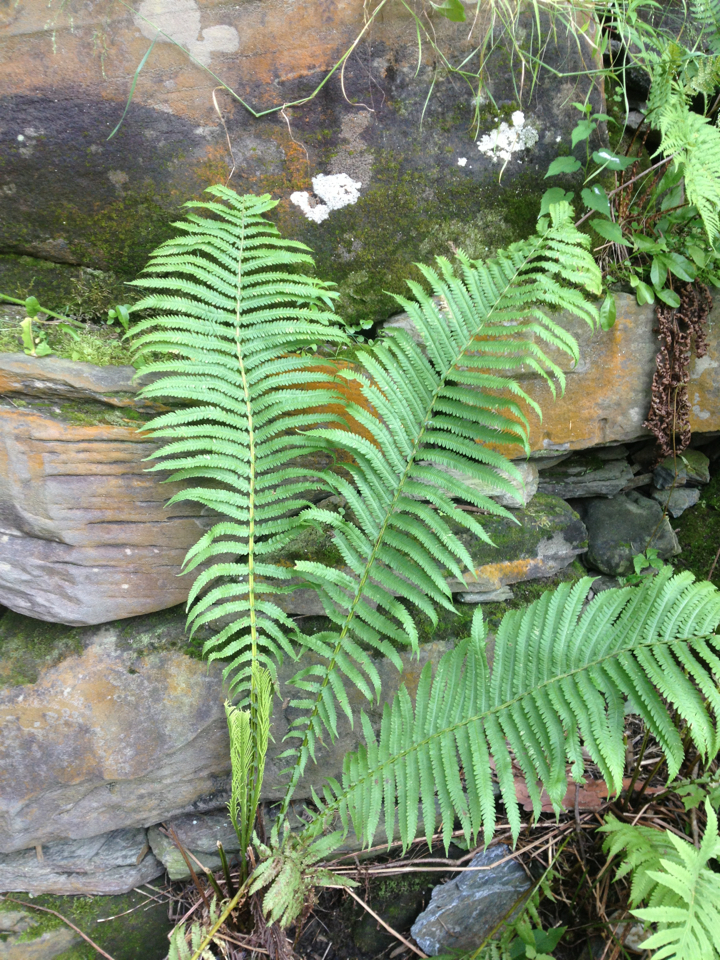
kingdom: Plantae
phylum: Tracheophyta
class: Polypodiopsida
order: Polypodiales
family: Onocleaceae
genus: Matteuccia
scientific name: Matteuccia struthiopteris
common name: Ostrich fern
